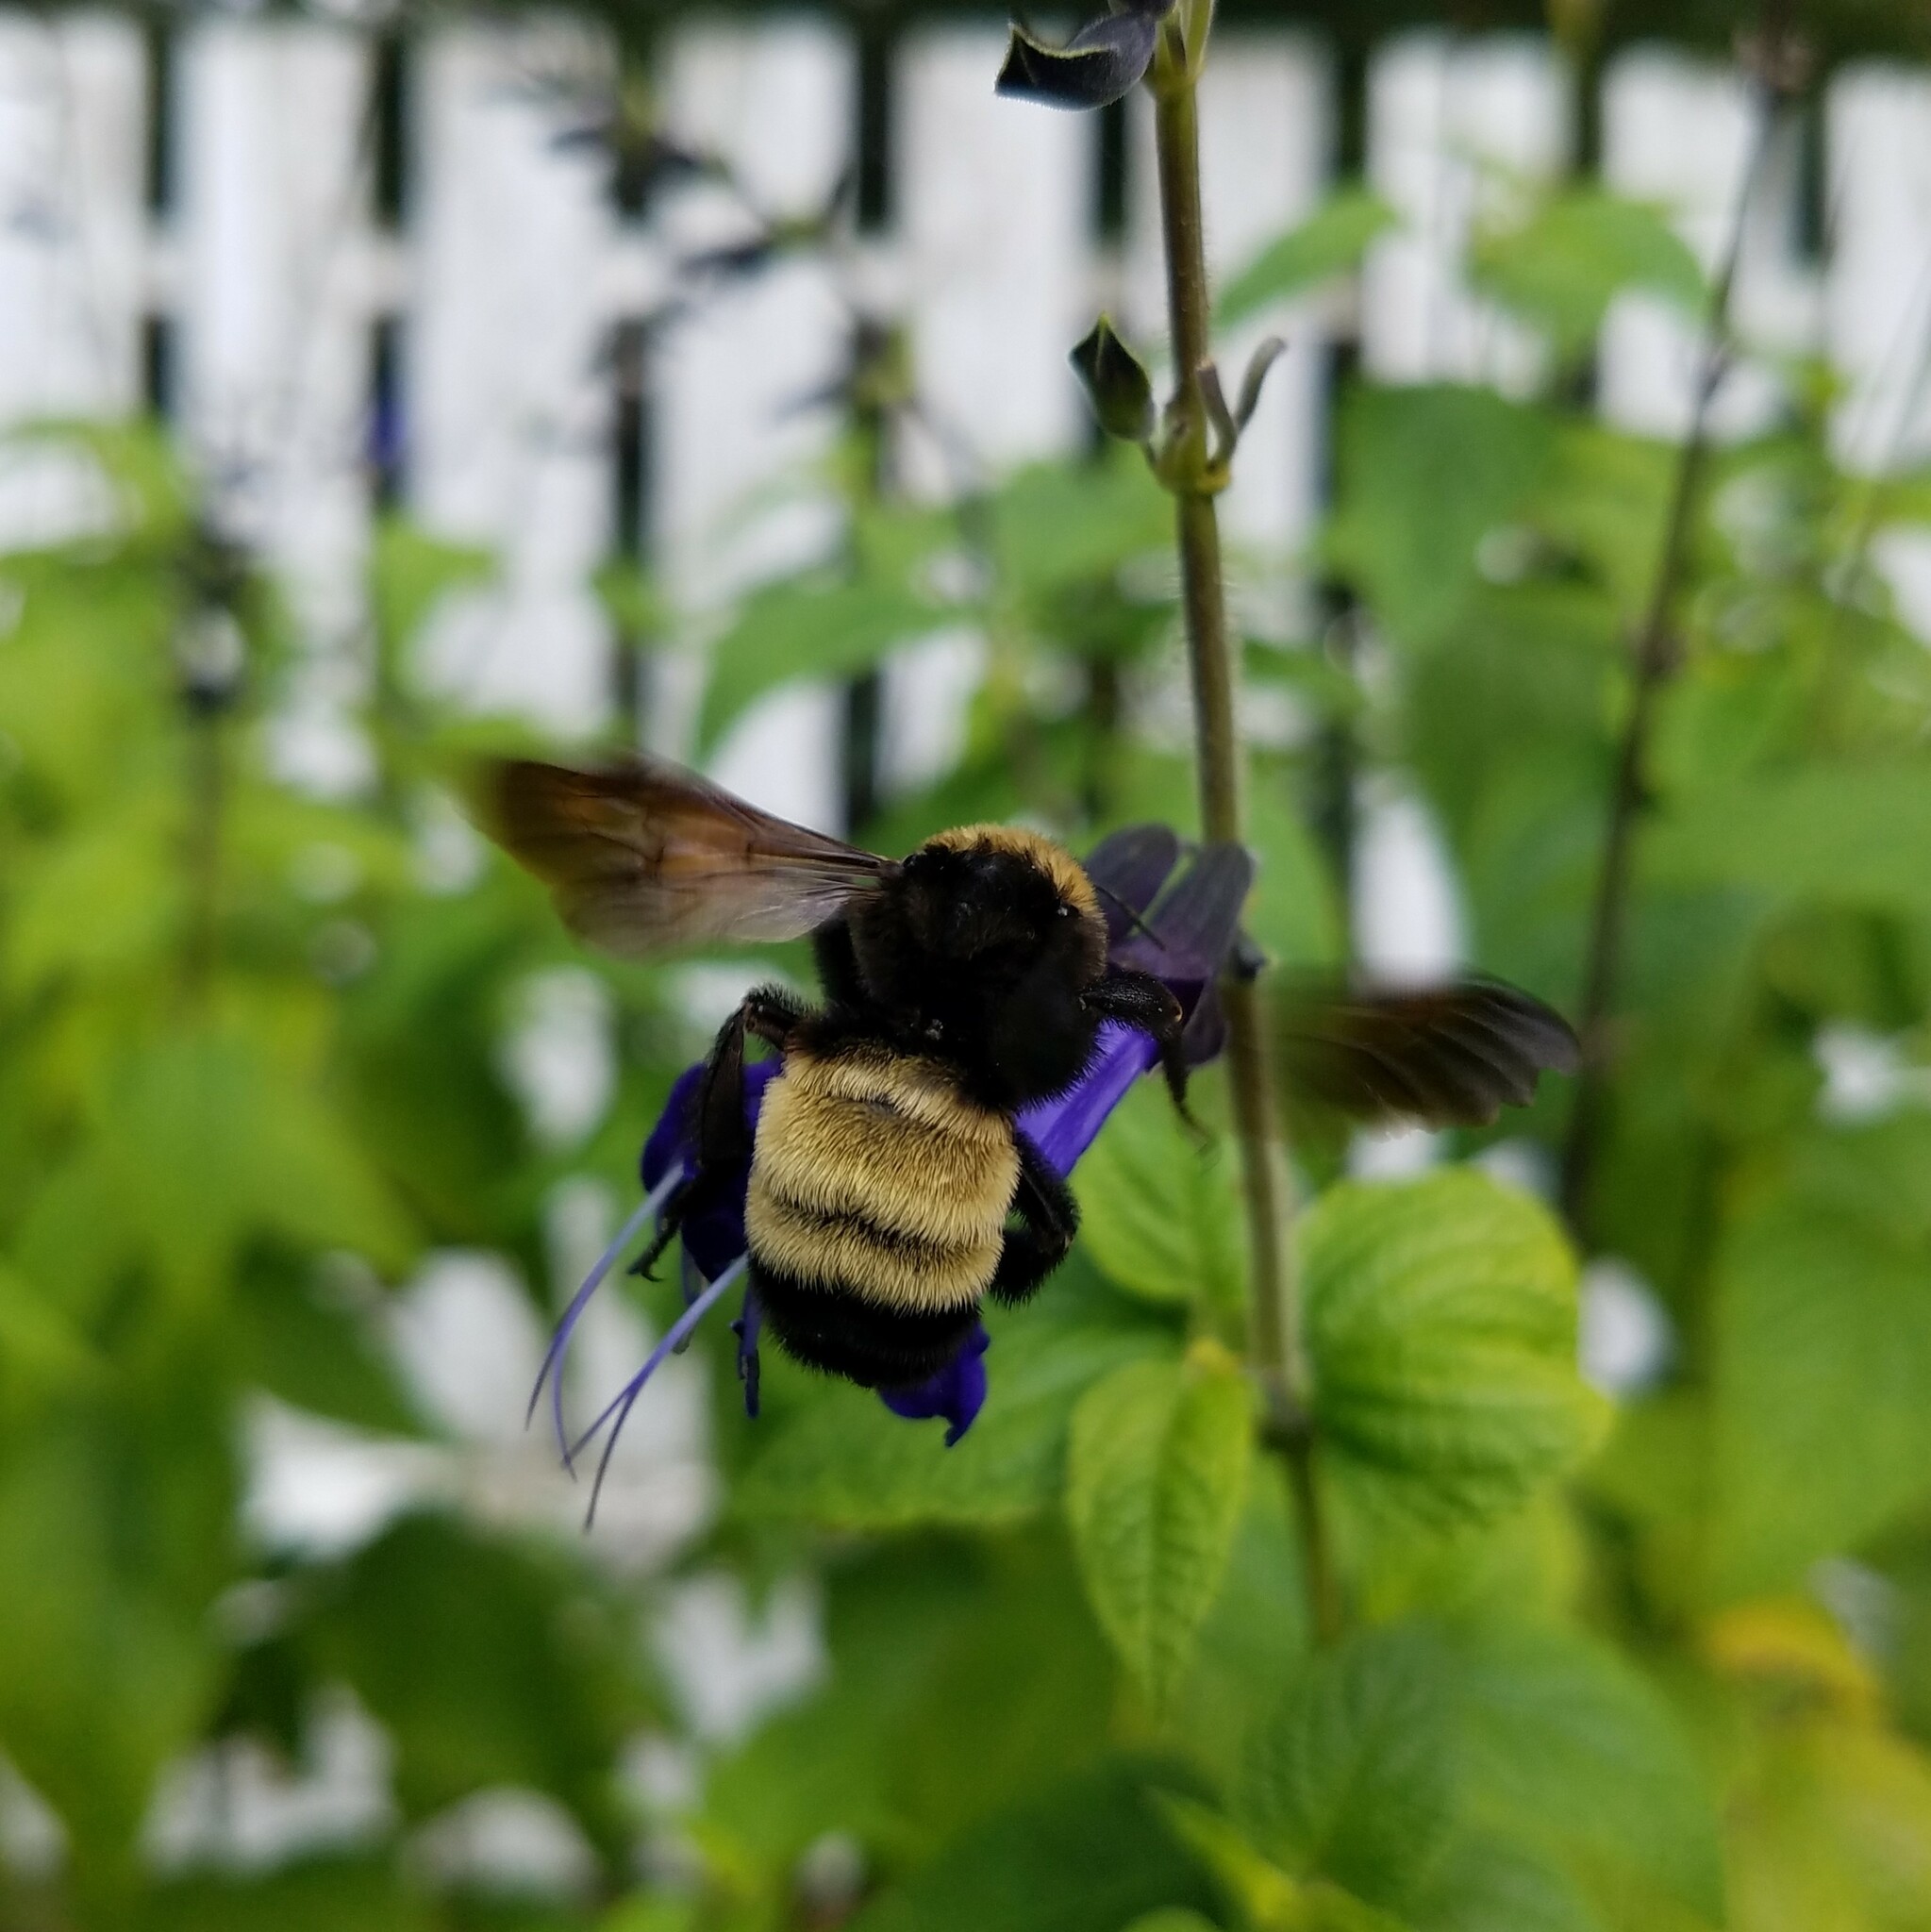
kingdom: Animalia
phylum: Arthropoda
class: Insecta
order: Hymenoptera
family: Apidae
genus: Bombus
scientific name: Bombus pensylvanicus
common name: Bumble bee
